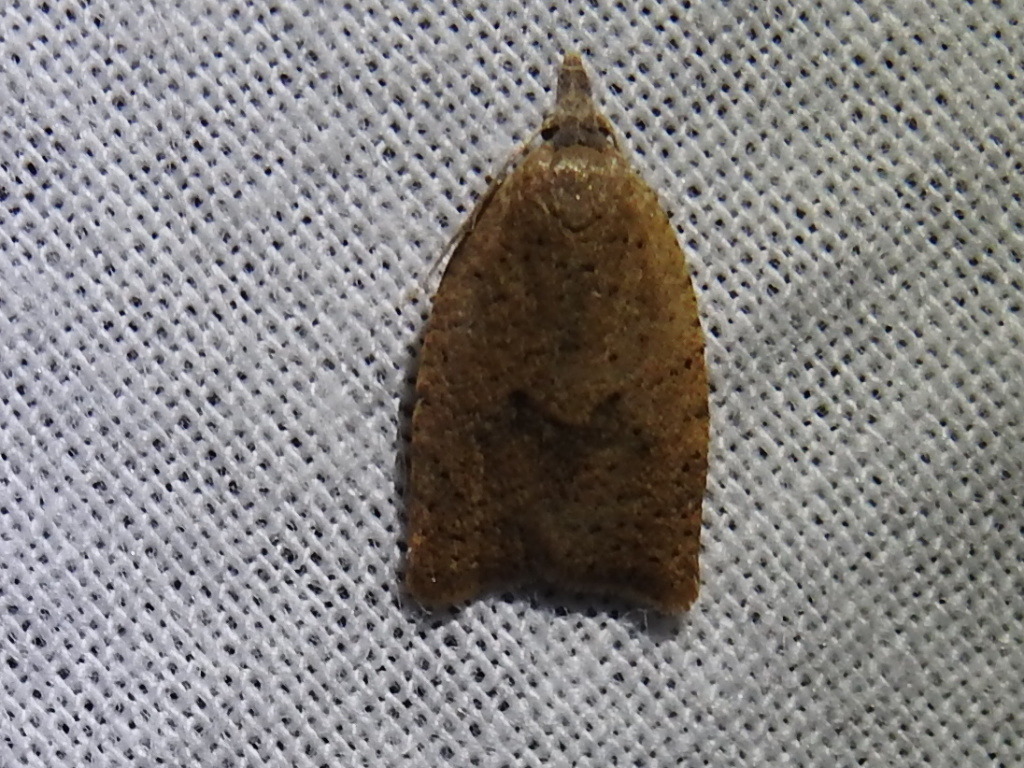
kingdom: Animalia
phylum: Arthropoda
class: Insecta
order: Lepidoptera
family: Tortricidae
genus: Sparganothoides
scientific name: Sparganothoides lentiginosana
